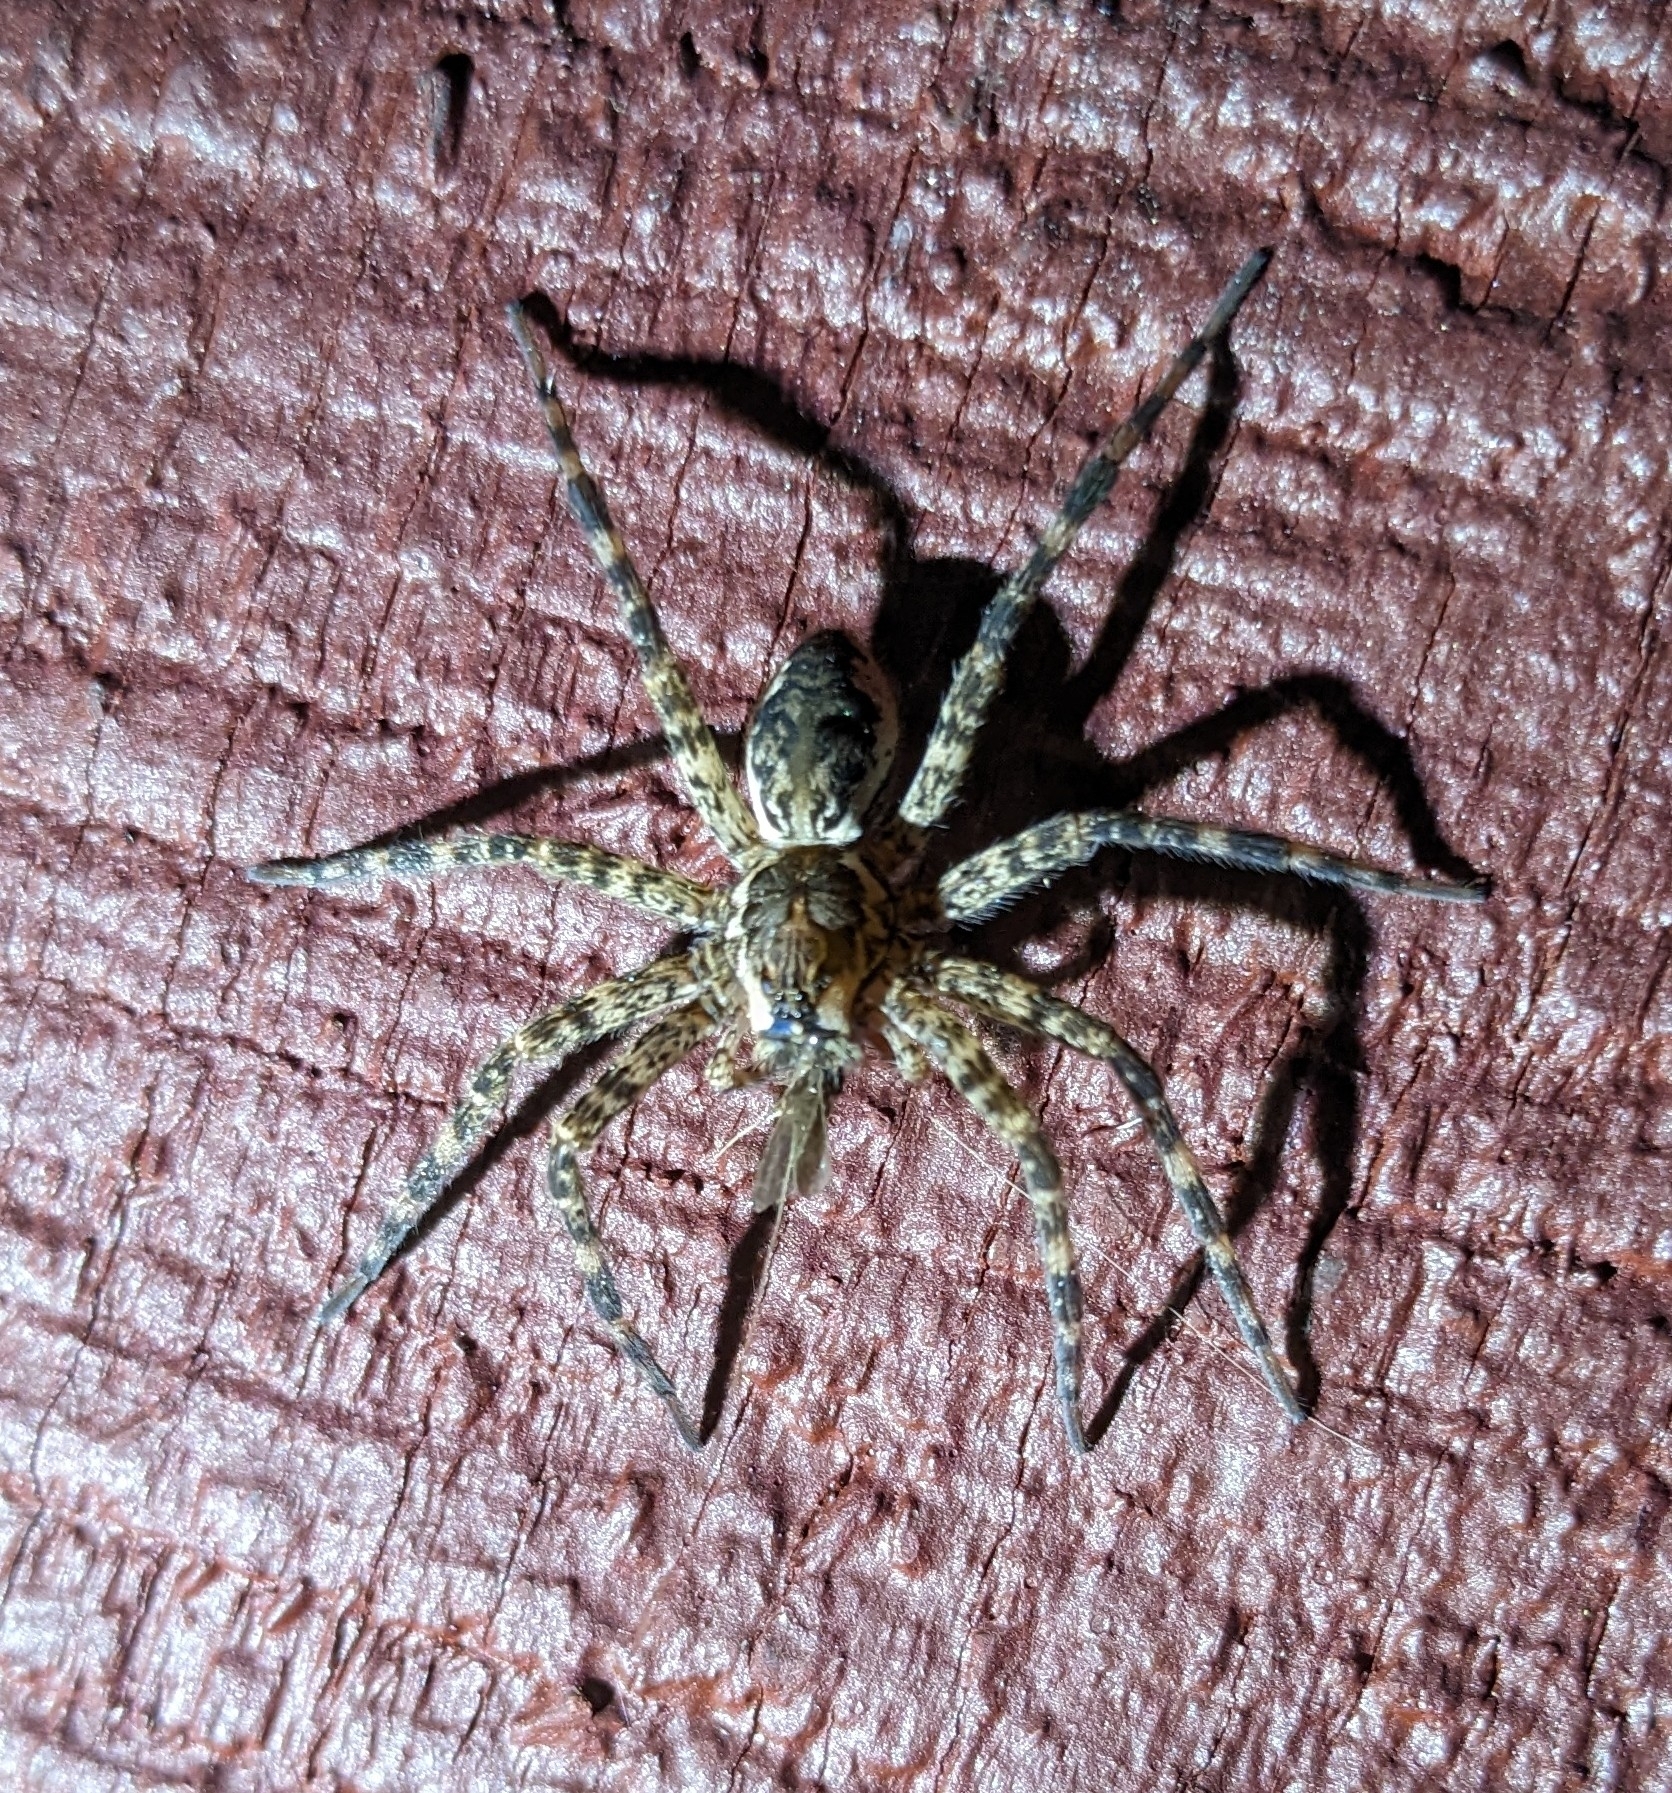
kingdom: Animalia
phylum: Arthropoda
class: Arachnida
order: Araneae
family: Pisauridae
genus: Dolomedes
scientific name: Dolomedes tenebrosus
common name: Dark fishing spider
